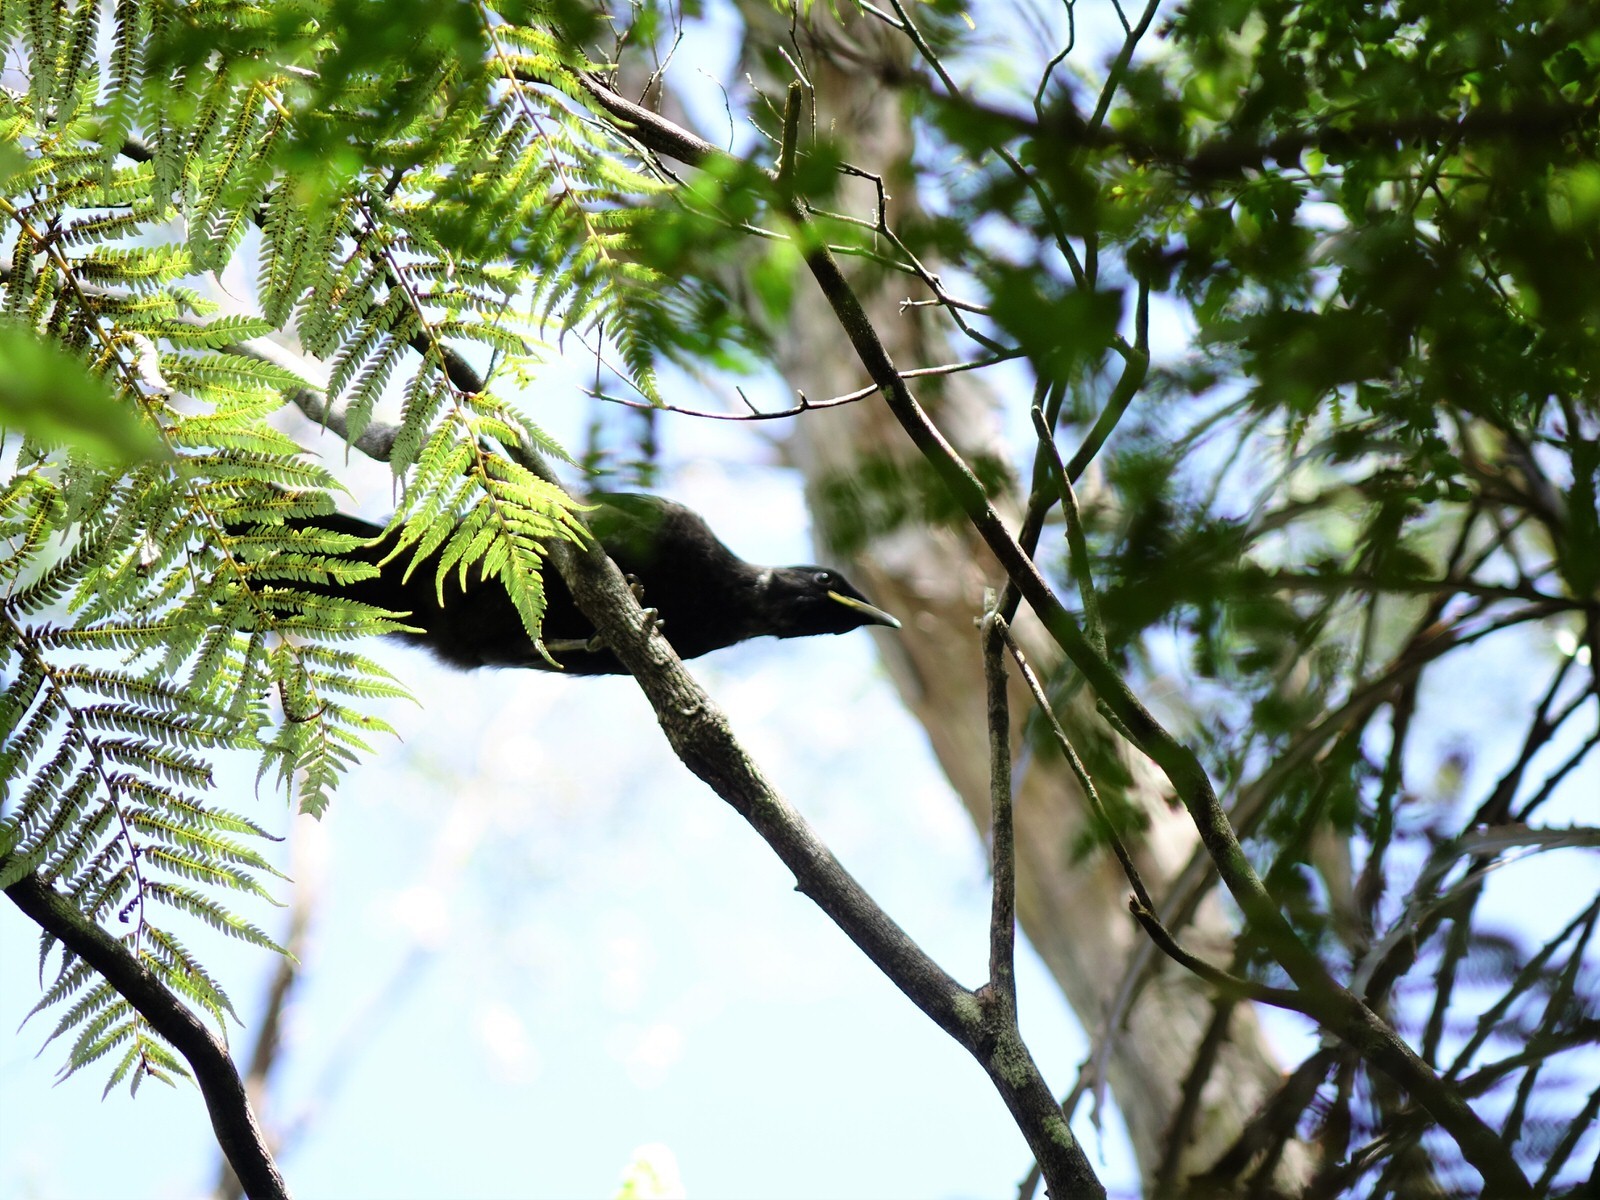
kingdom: Animalia
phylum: Chordata
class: Aves
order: Passeriformes
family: Meliphagidae
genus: Prosthemadera
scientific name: Prosthemadera novaeseelandiae
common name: Tui
